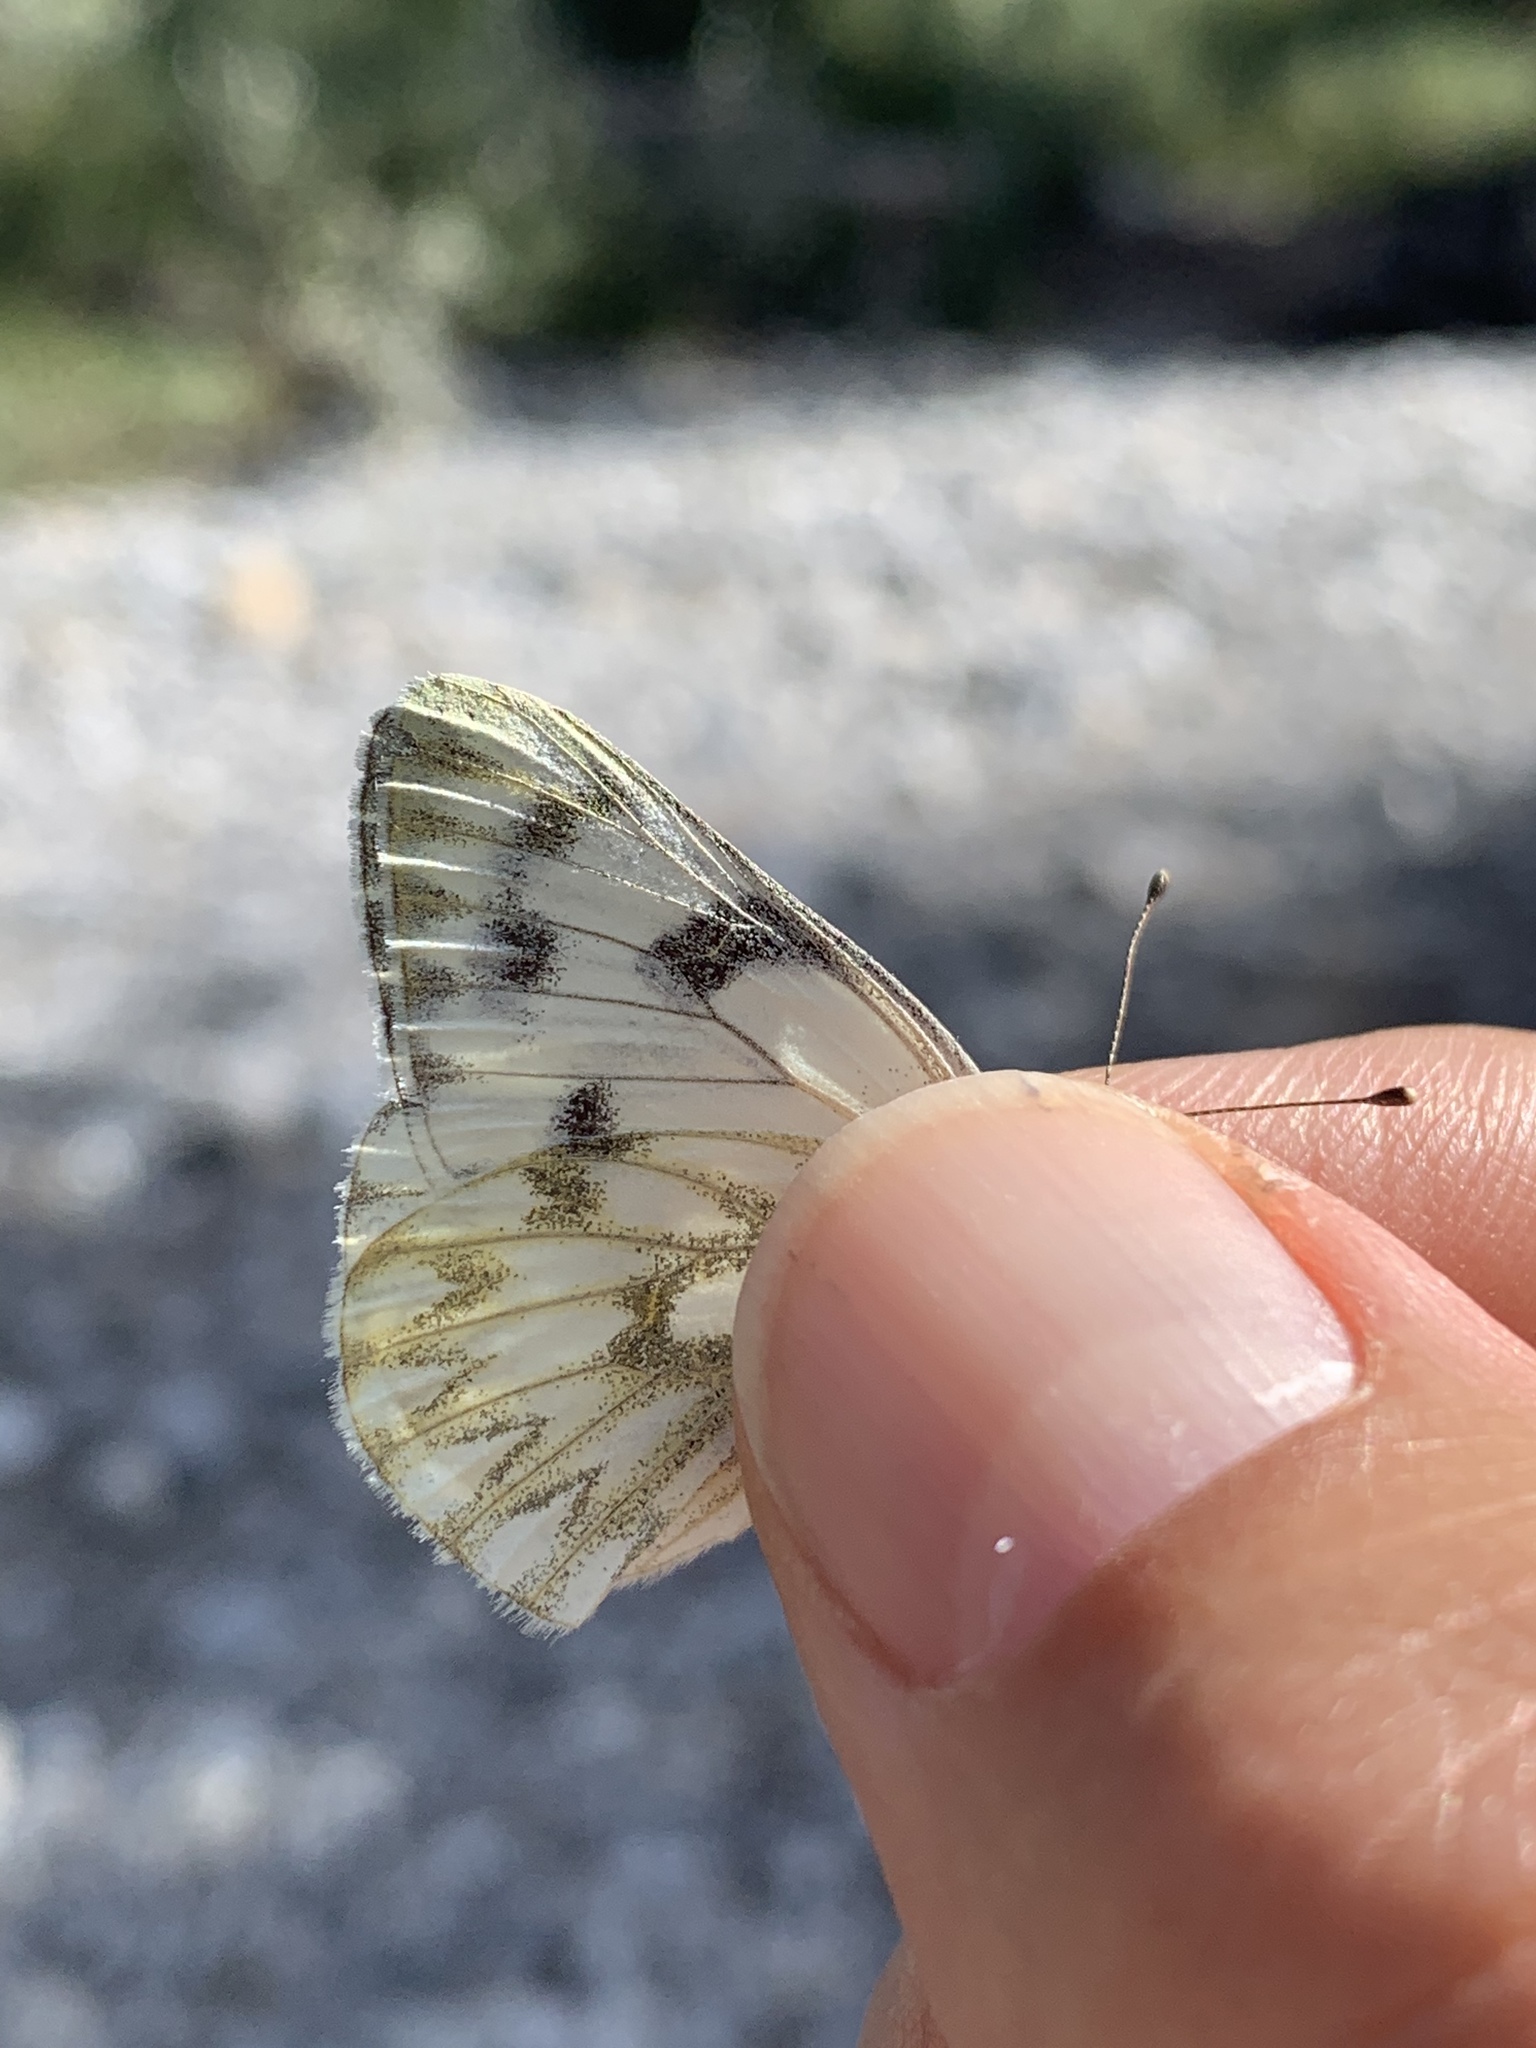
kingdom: Animalia
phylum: Arthropoda
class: Insecta
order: Lepidoptera
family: Pieridae
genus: Pontia
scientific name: Pontia occidentalis
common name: Western white
